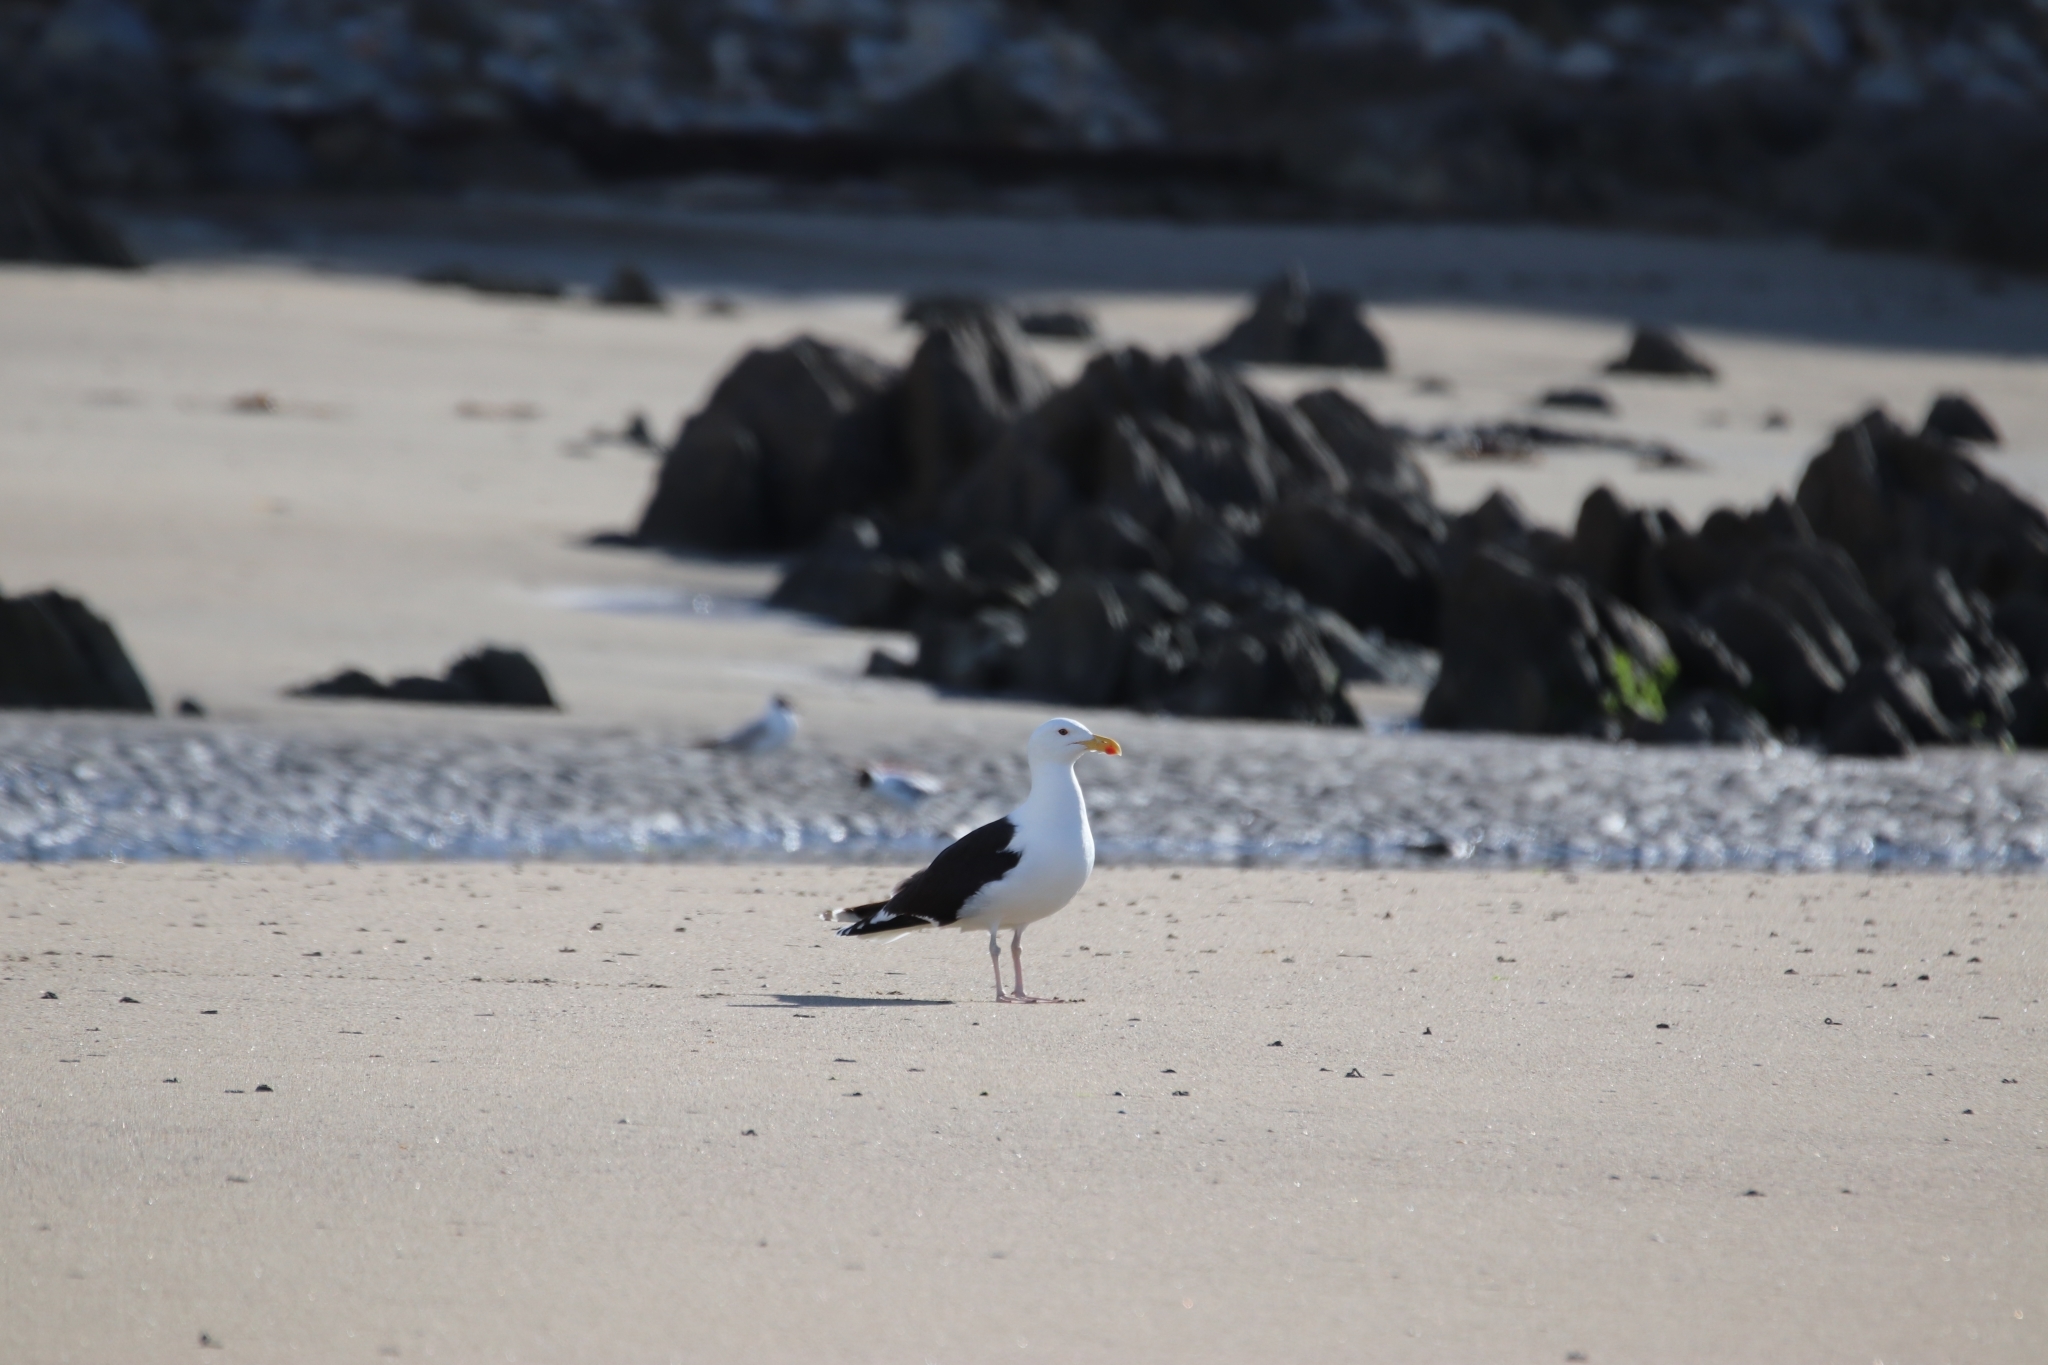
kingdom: Animalia
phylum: Chordata
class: Aves
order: Charadriiformes
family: Laridae
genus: Larus
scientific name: Larus marinus
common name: Great black-backed gull
